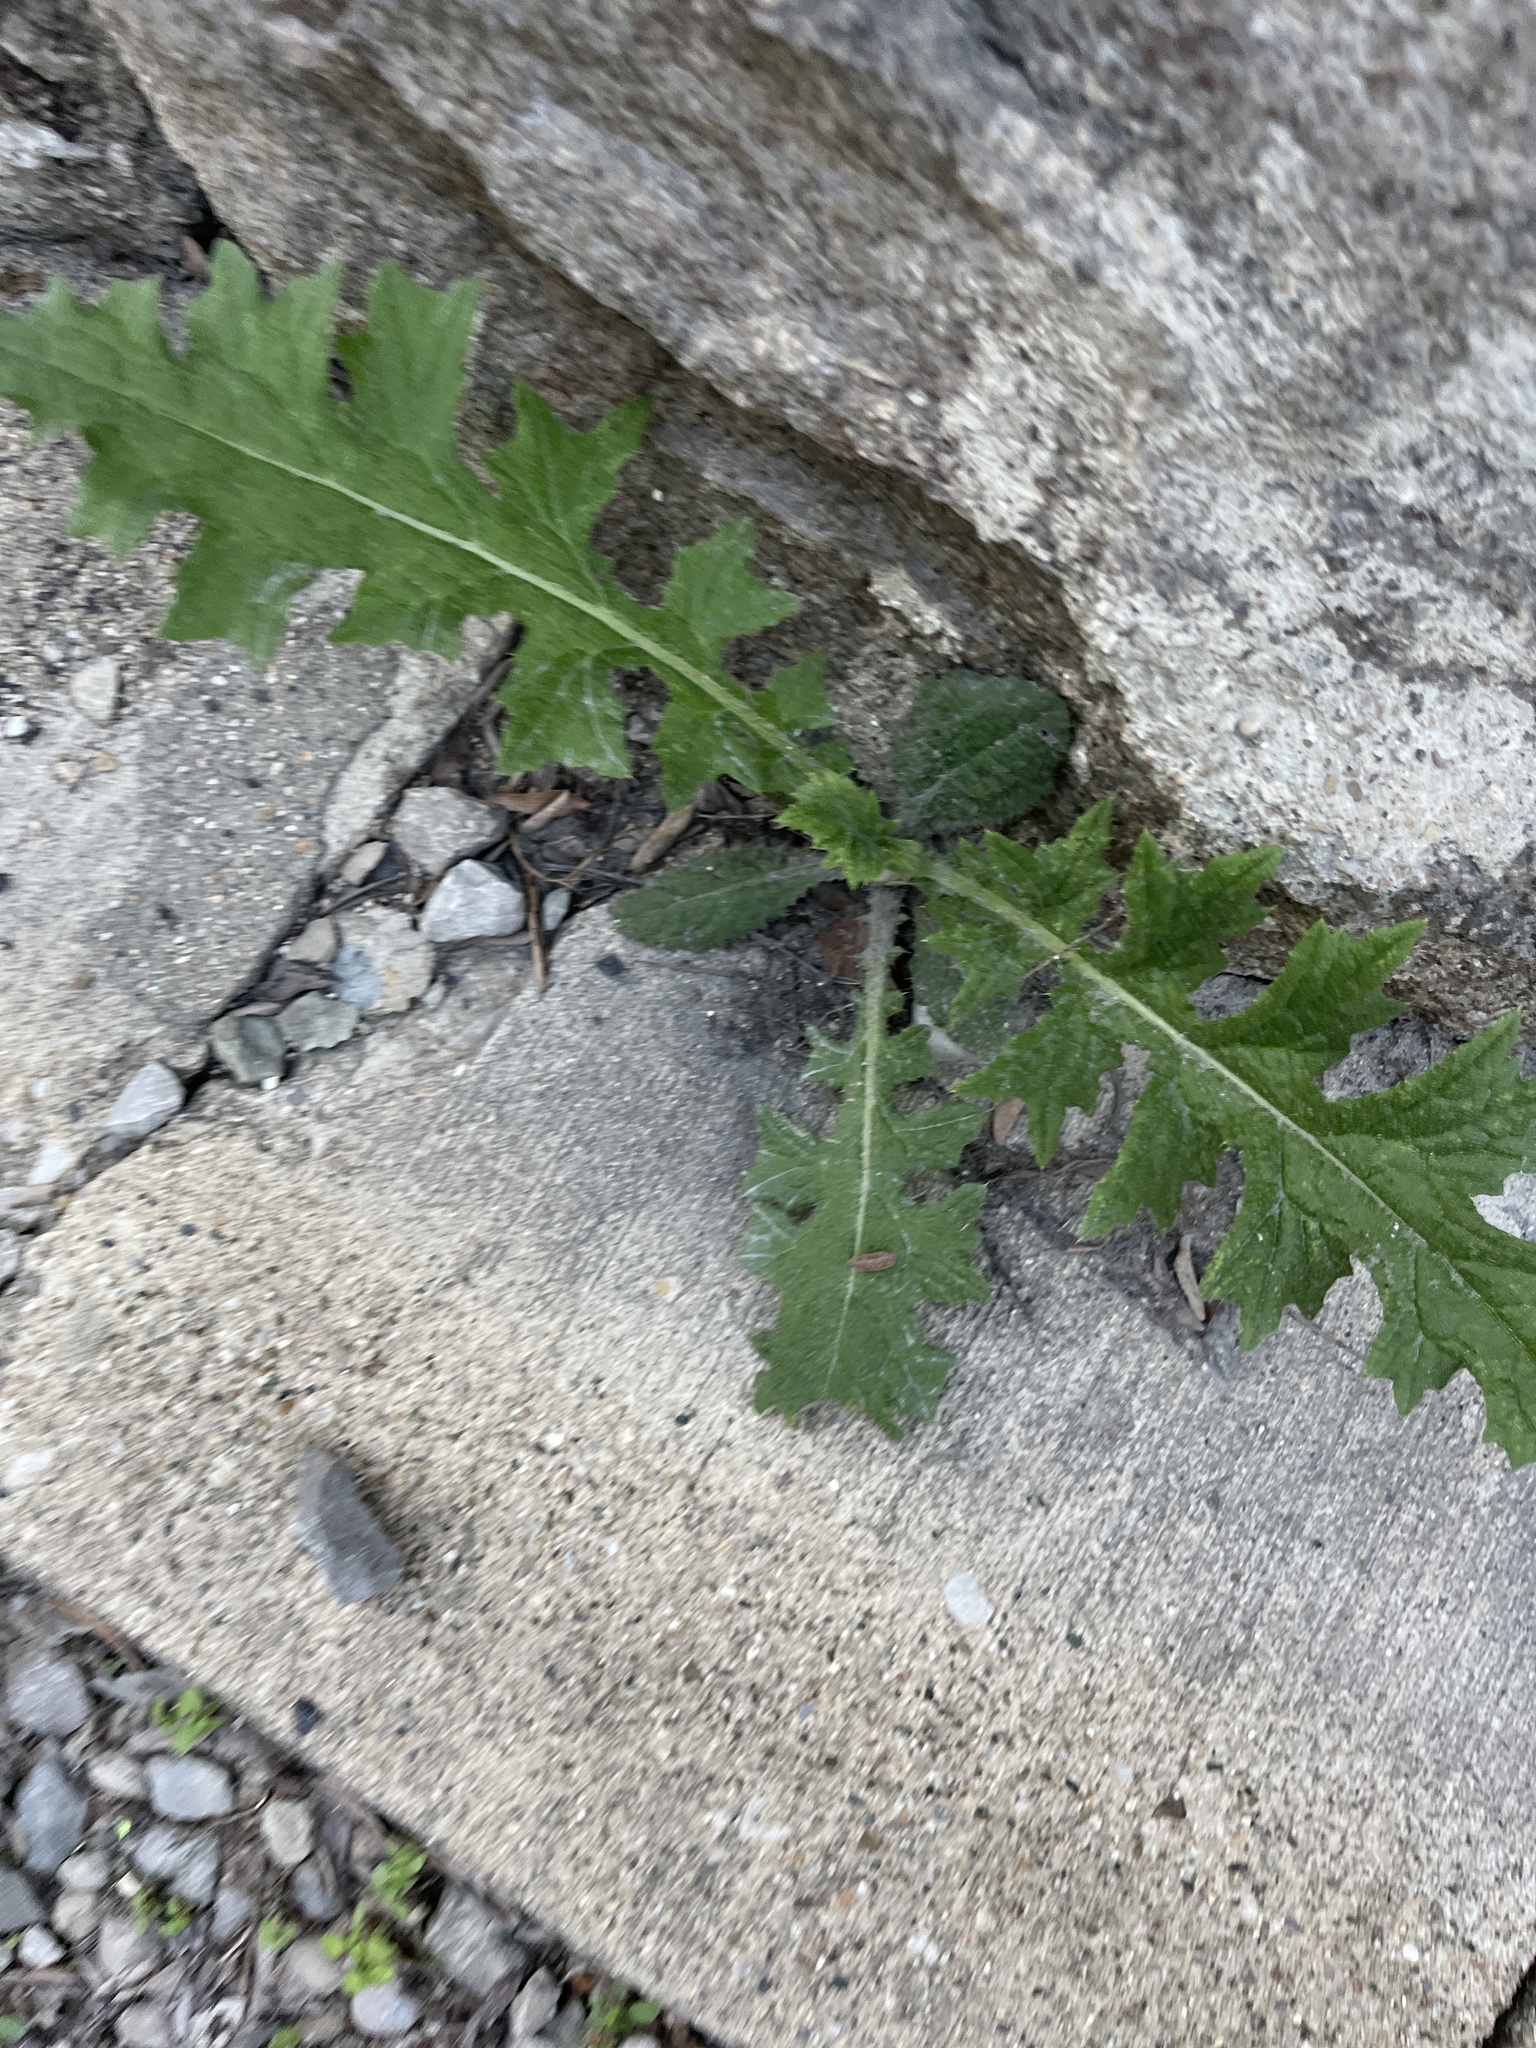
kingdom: Plantae
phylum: Tracheophyta
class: Magnoliopsida
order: Asterales
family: Asteraceae
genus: Cirsium
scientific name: Cirsium vulgare
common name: Bull thistle
